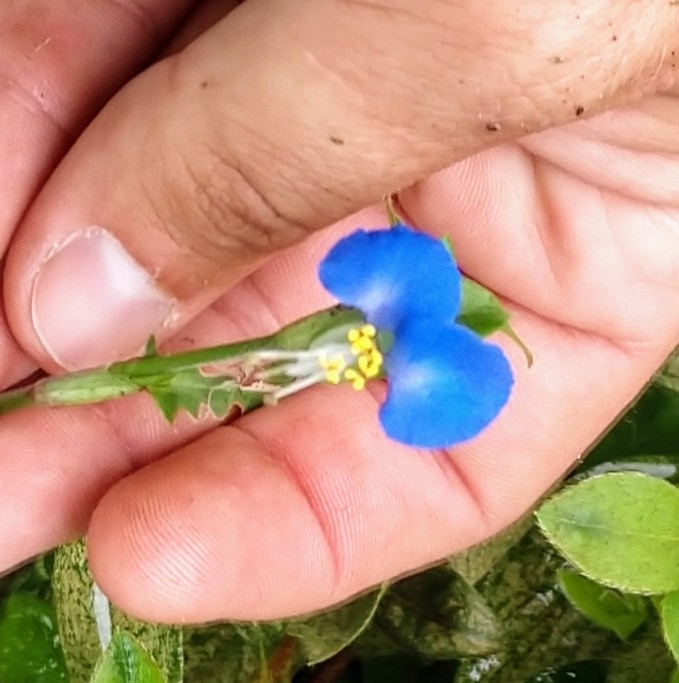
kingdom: Plantae
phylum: Tracheophyta
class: Liliopsida
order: Commelinales
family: Commelinaceae
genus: Commelina
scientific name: Commelina communis
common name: Asiatic dayflower
